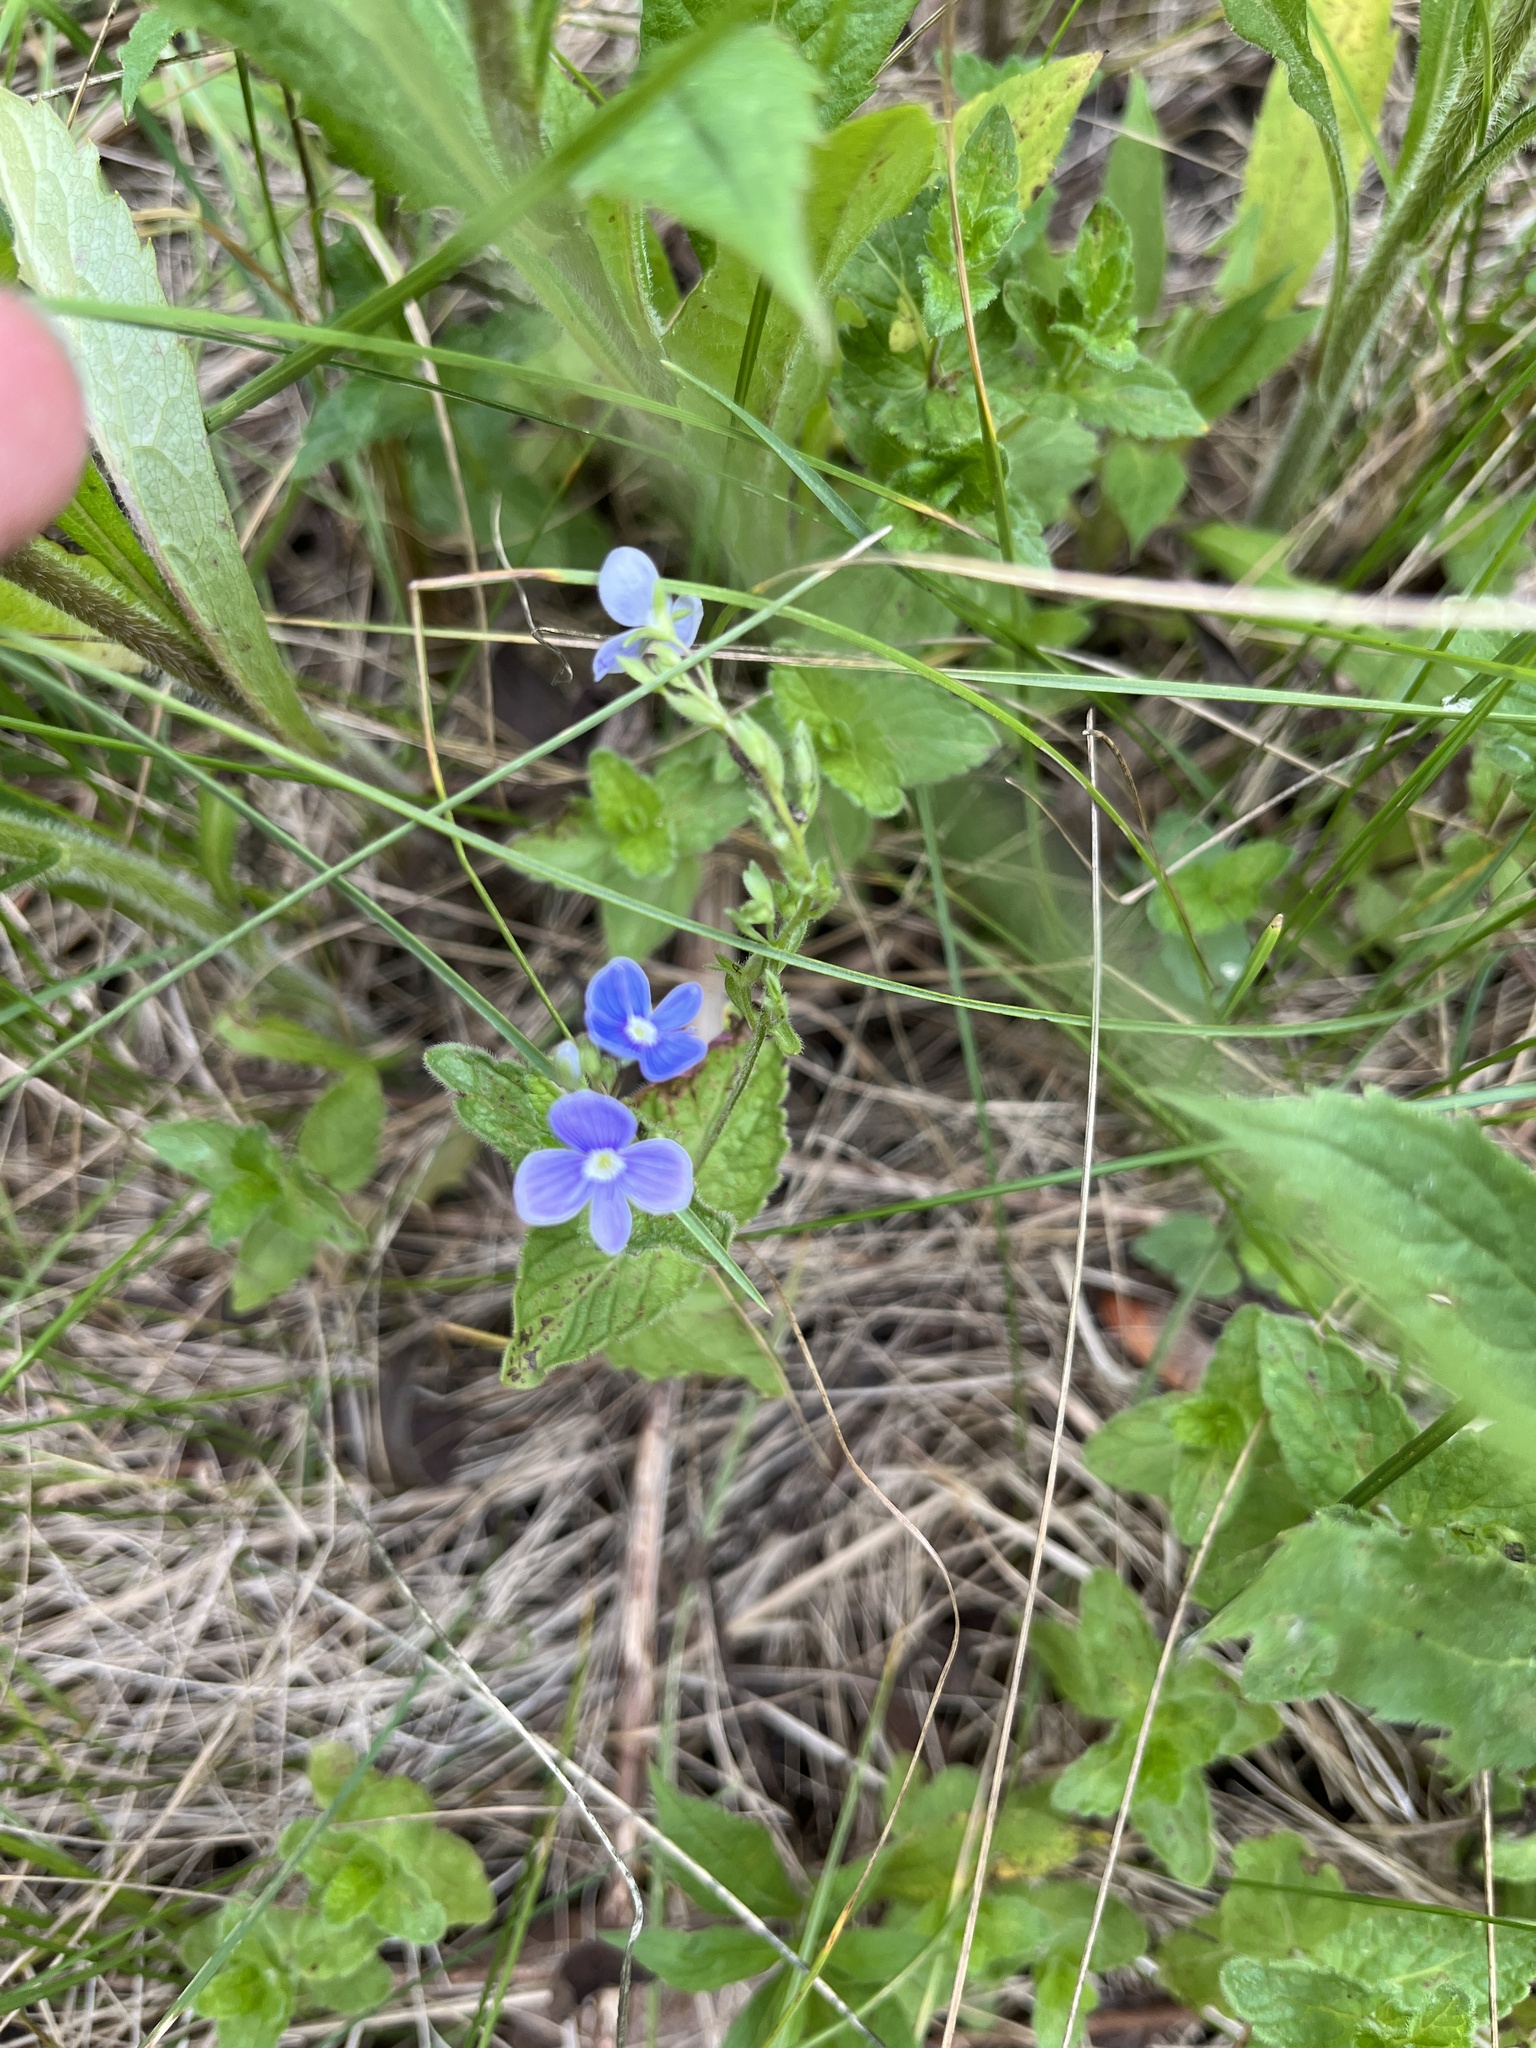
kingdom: Plantae
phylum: Tracheophyta
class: Magnoliopsida
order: Lamiales
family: Plantaginaceae
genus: Veronica
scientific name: Veronica chamaedrys
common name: Germander speedwell
